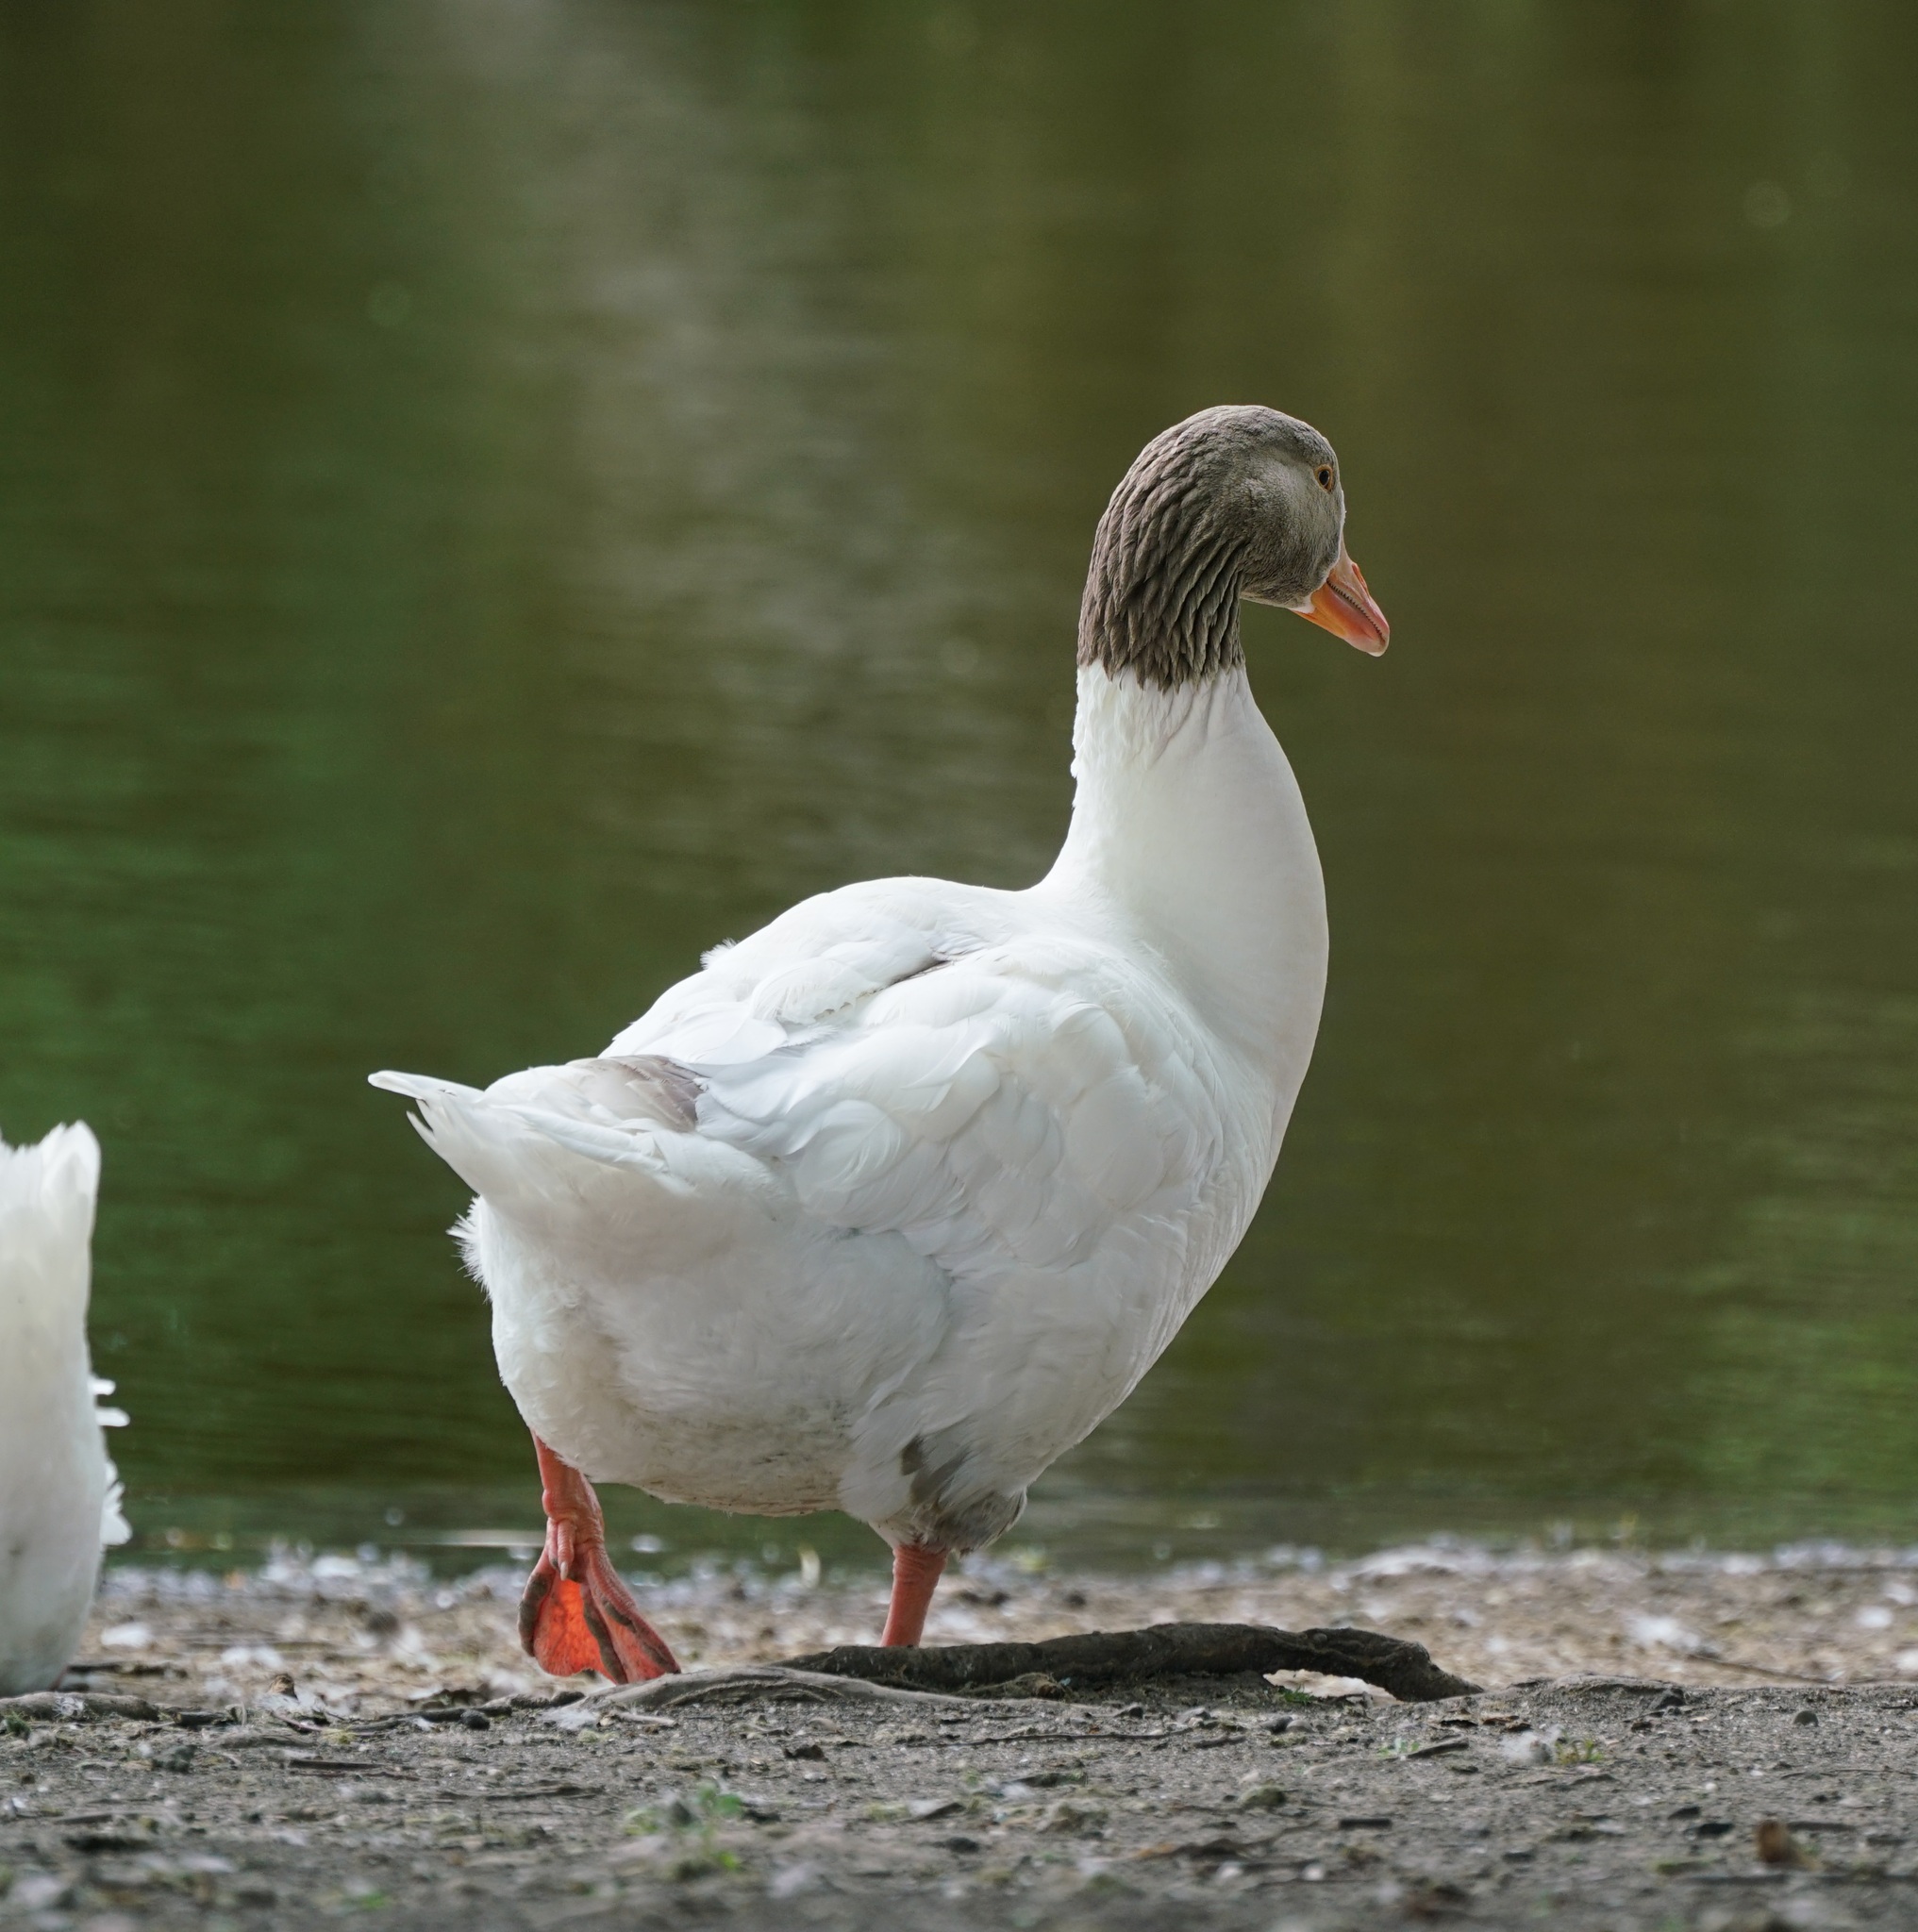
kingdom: Animalia
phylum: Chordata
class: Aves
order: Anseriformes
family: Anatidae
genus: Anser
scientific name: Anser anser
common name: Greylag goose
